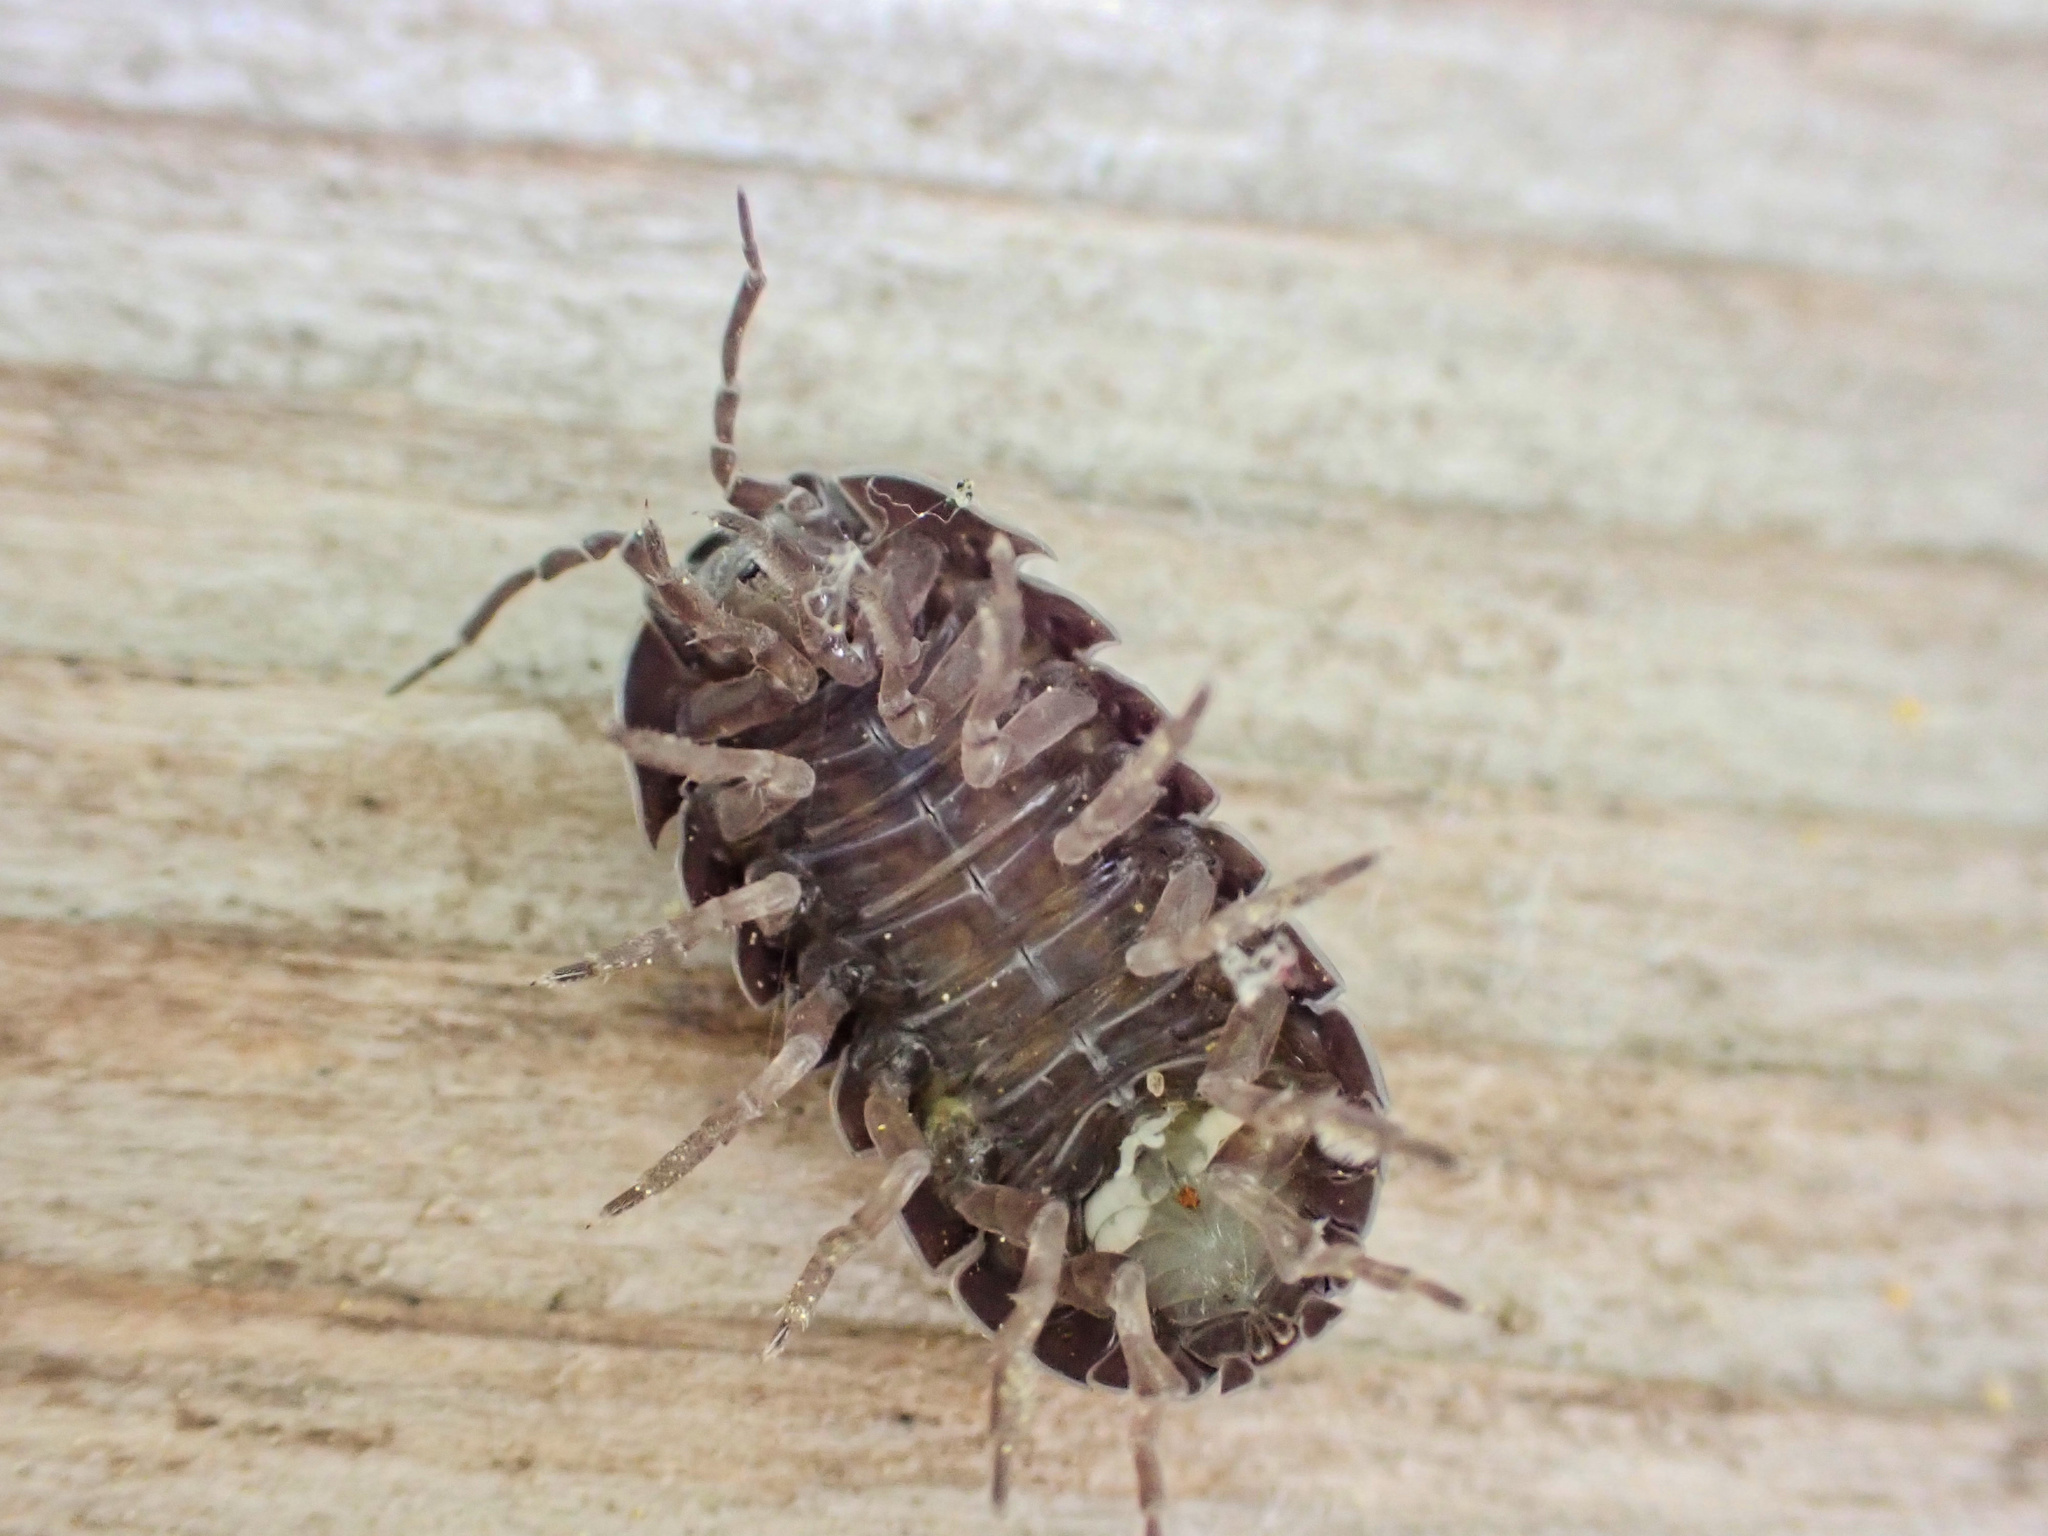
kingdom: Animalia
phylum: Arthropoda
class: Malacostraca
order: Isopoda
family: Armadillidiidae
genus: Armadillidium
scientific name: Armadillidium vulgare
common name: Common pill woodlouse
